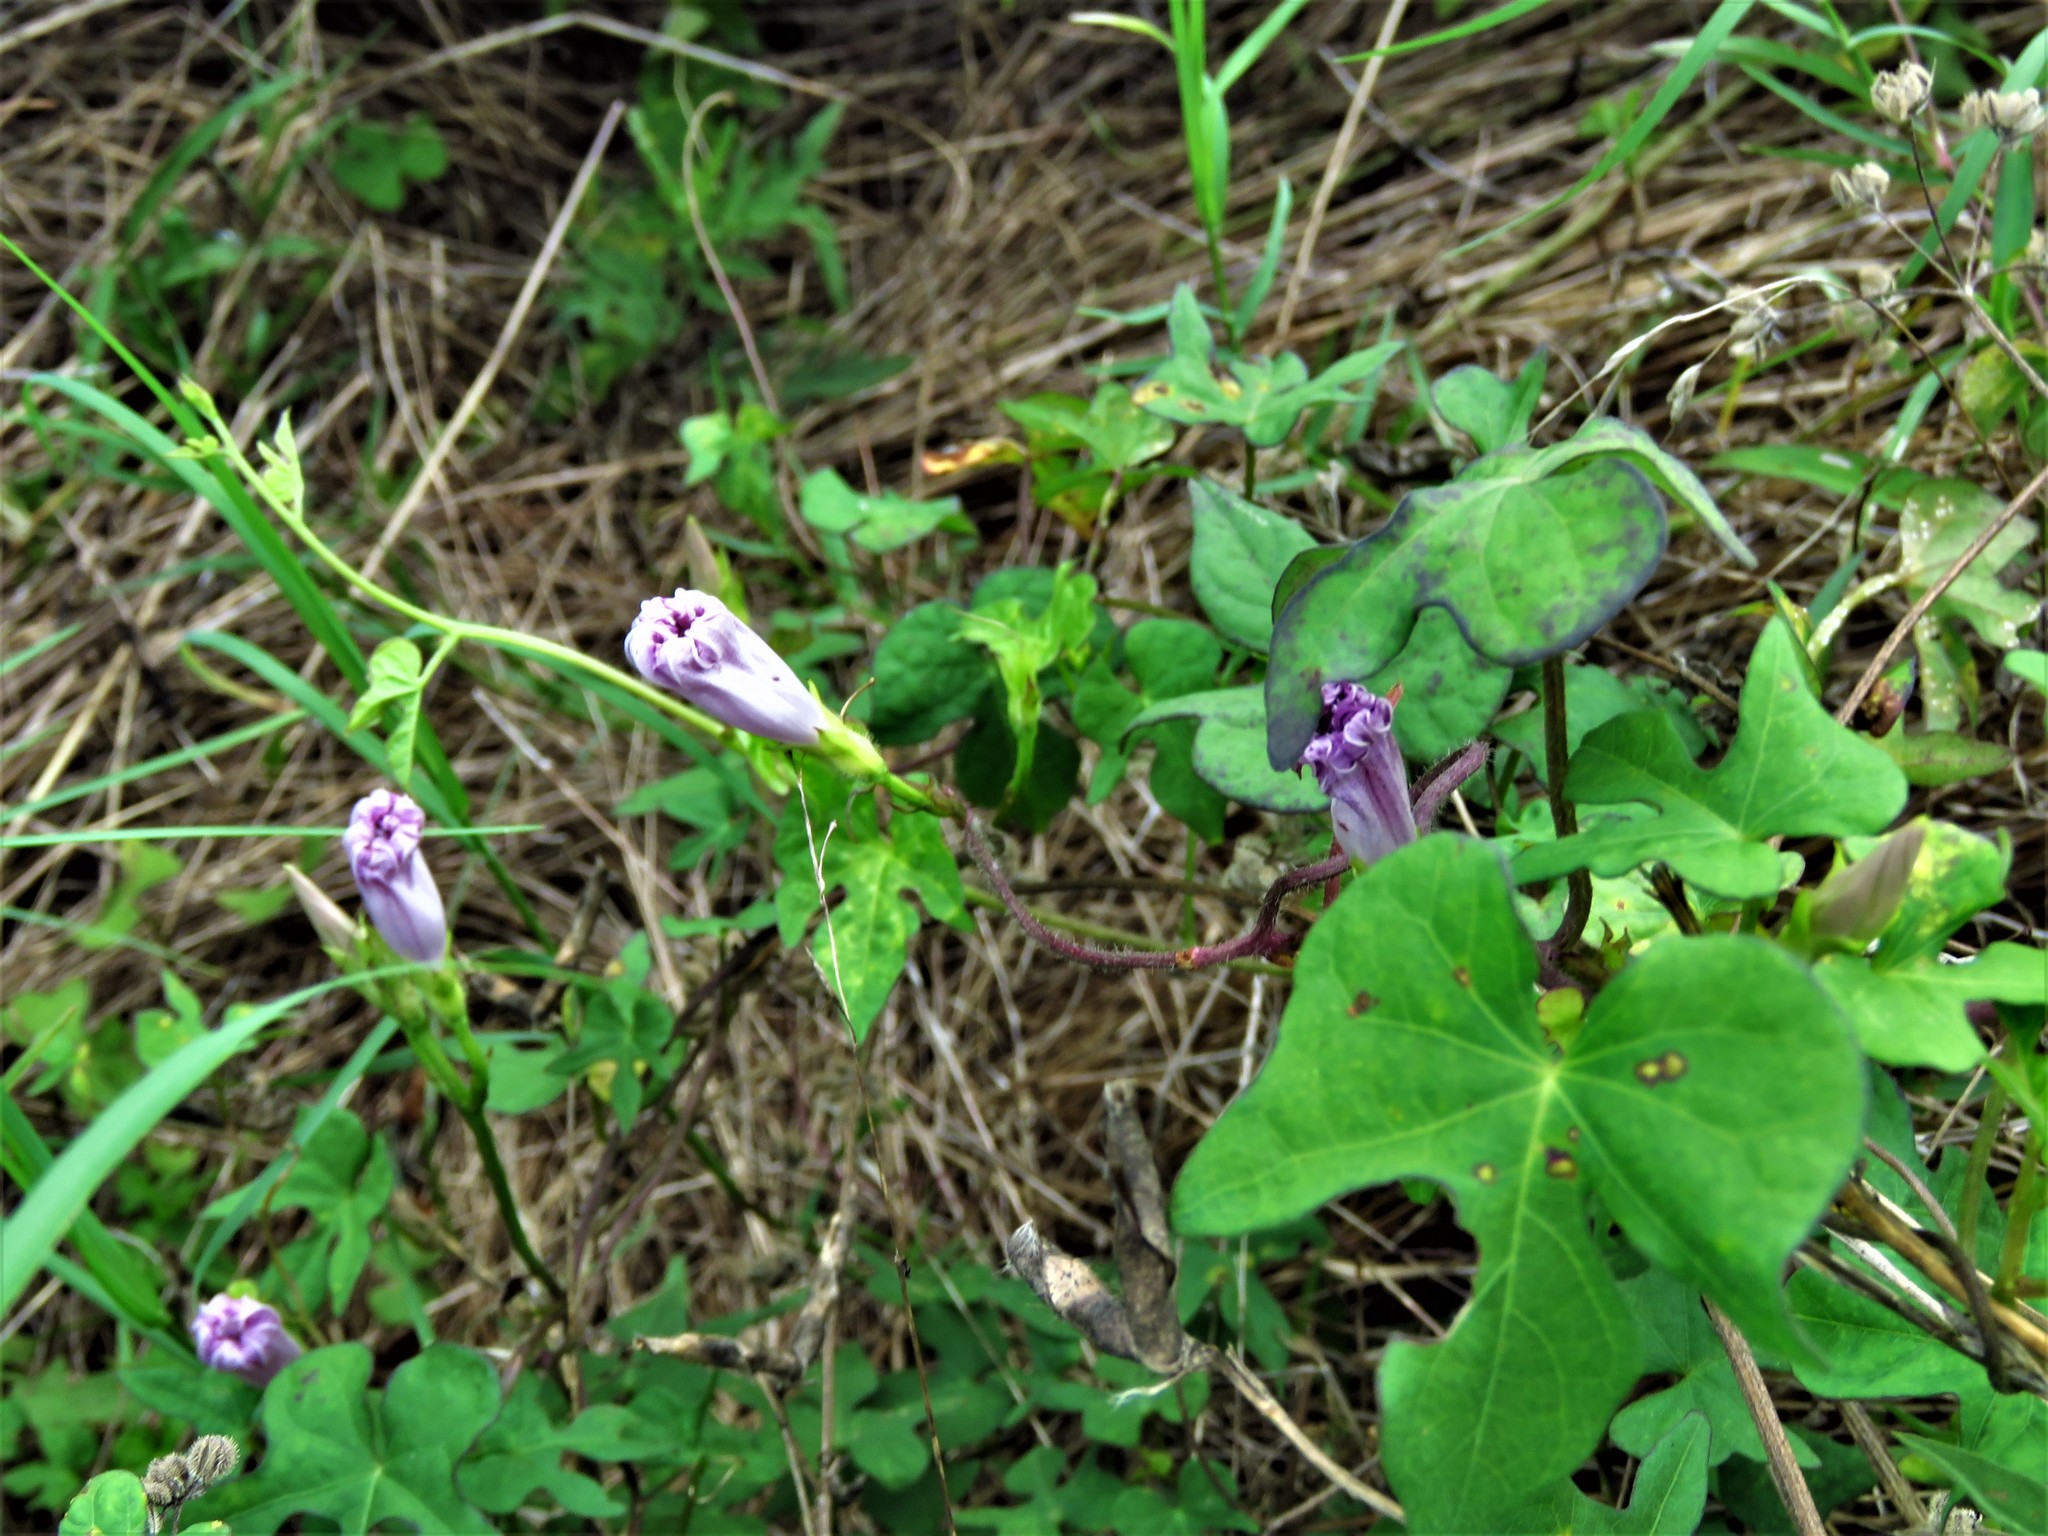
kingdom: Plantae
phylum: Tracheophyta
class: Magnoliopsida
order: Solanales
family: Convolvulaceae
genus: Ipomoea
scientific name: Ipomoea cordatotriloba
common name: Cotton morning glory
